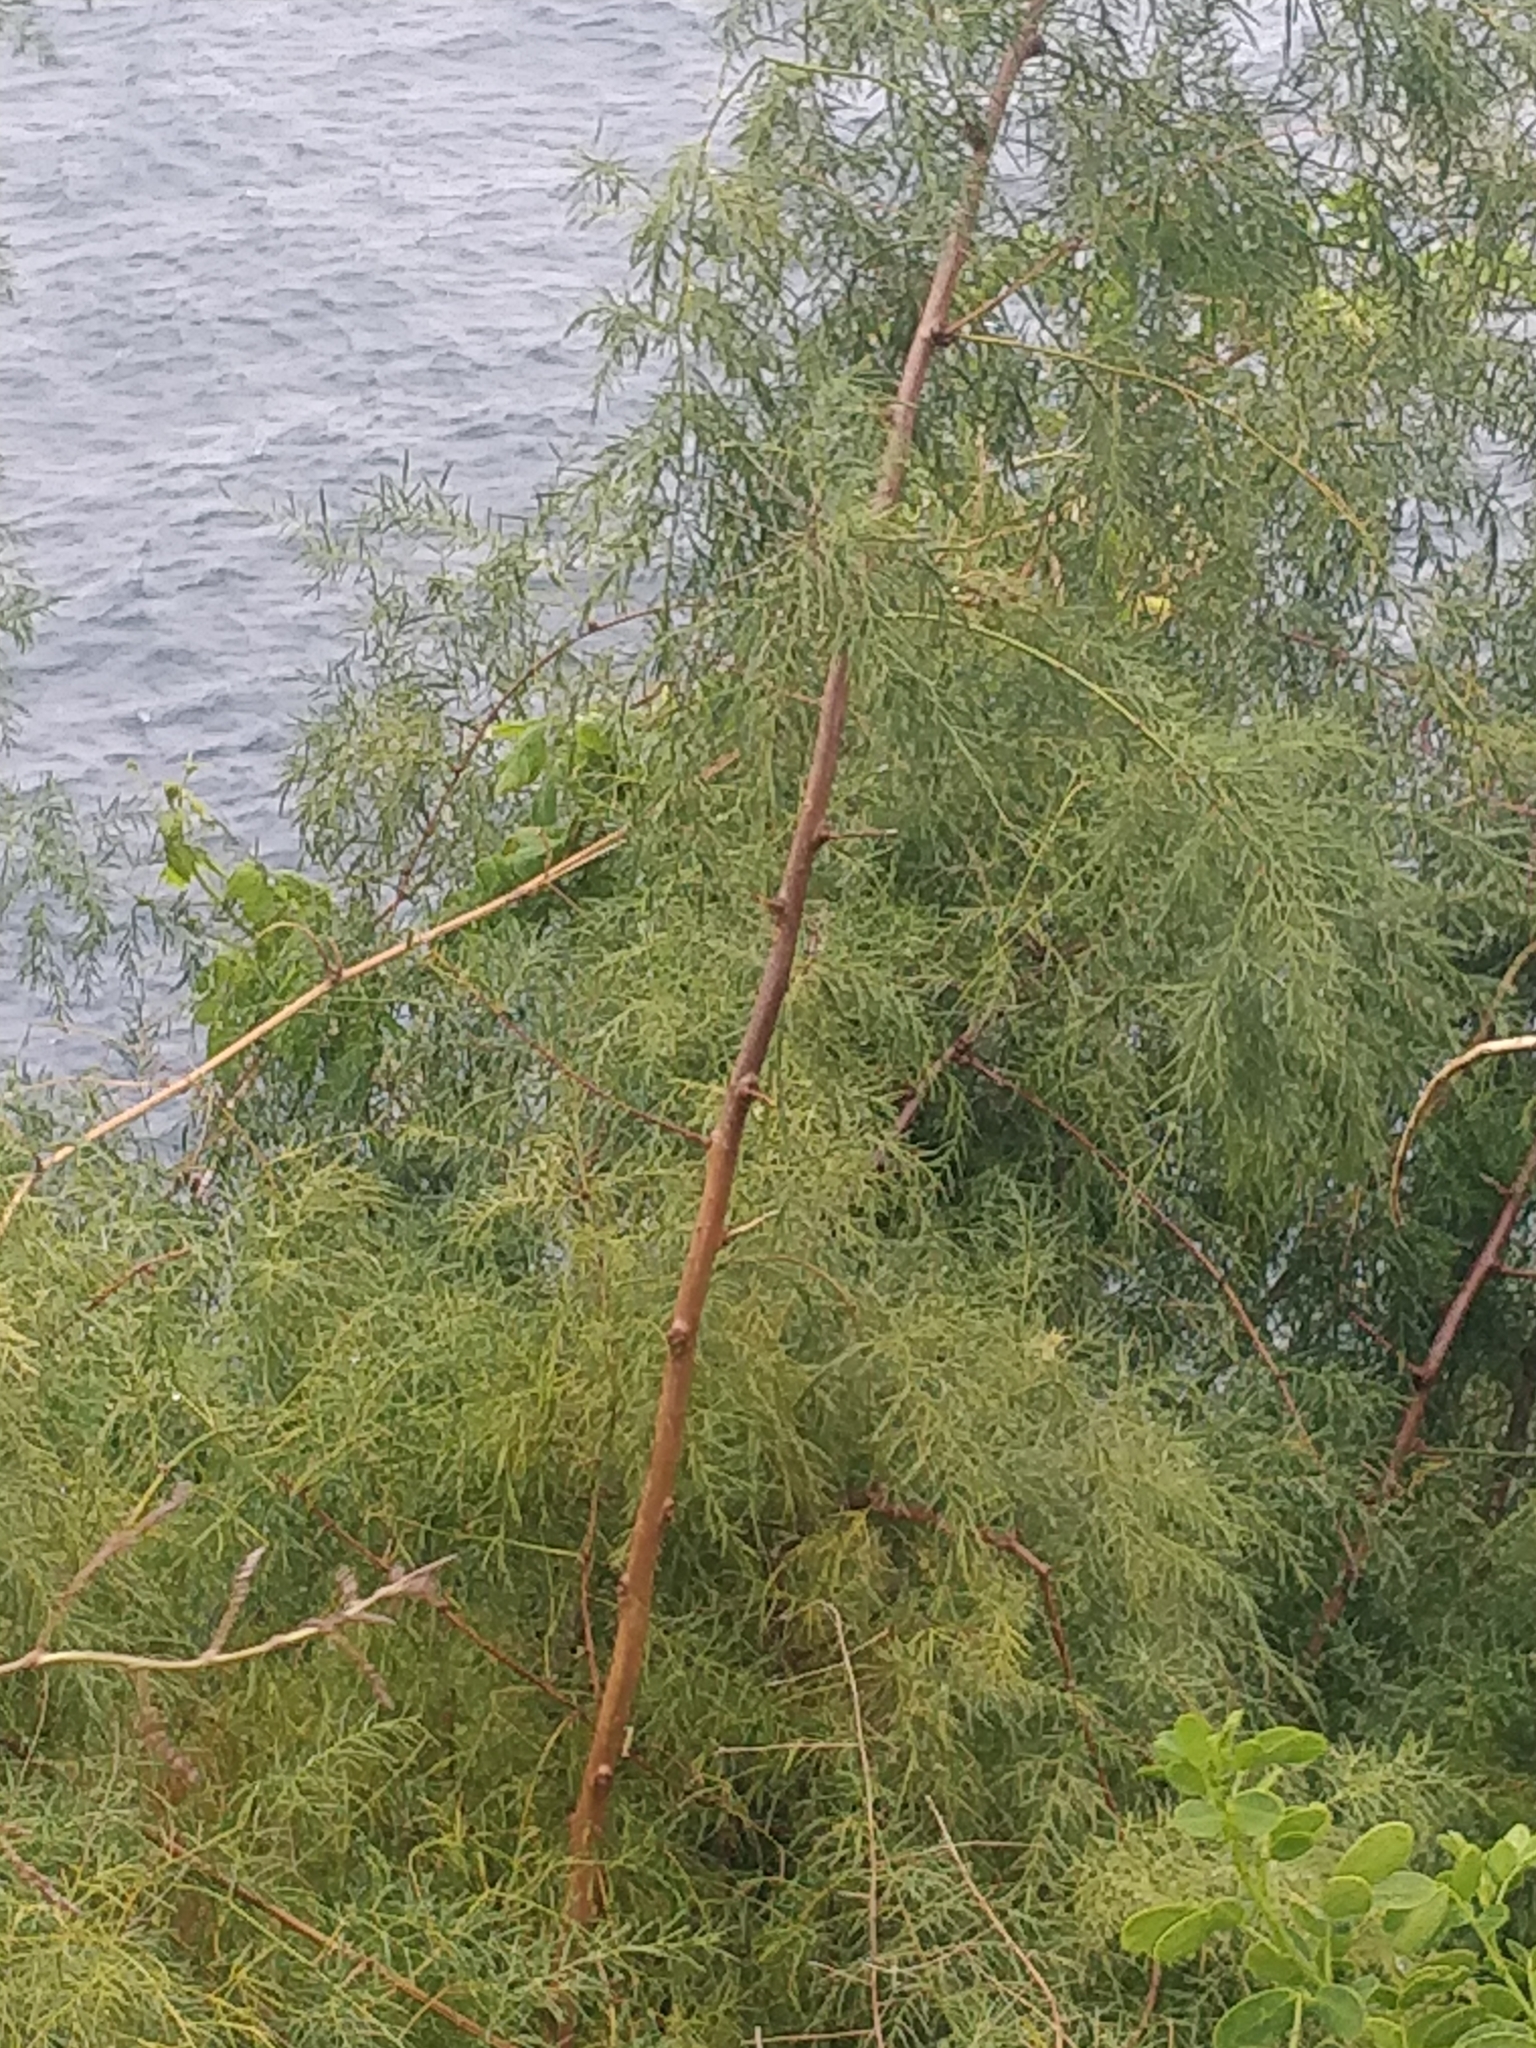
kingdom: Plantae
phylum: Tracheophyta
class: Liliopsida
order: Asparagales
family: Asparagaceae
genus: Asparagus
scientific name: Asparagus umbellatus
